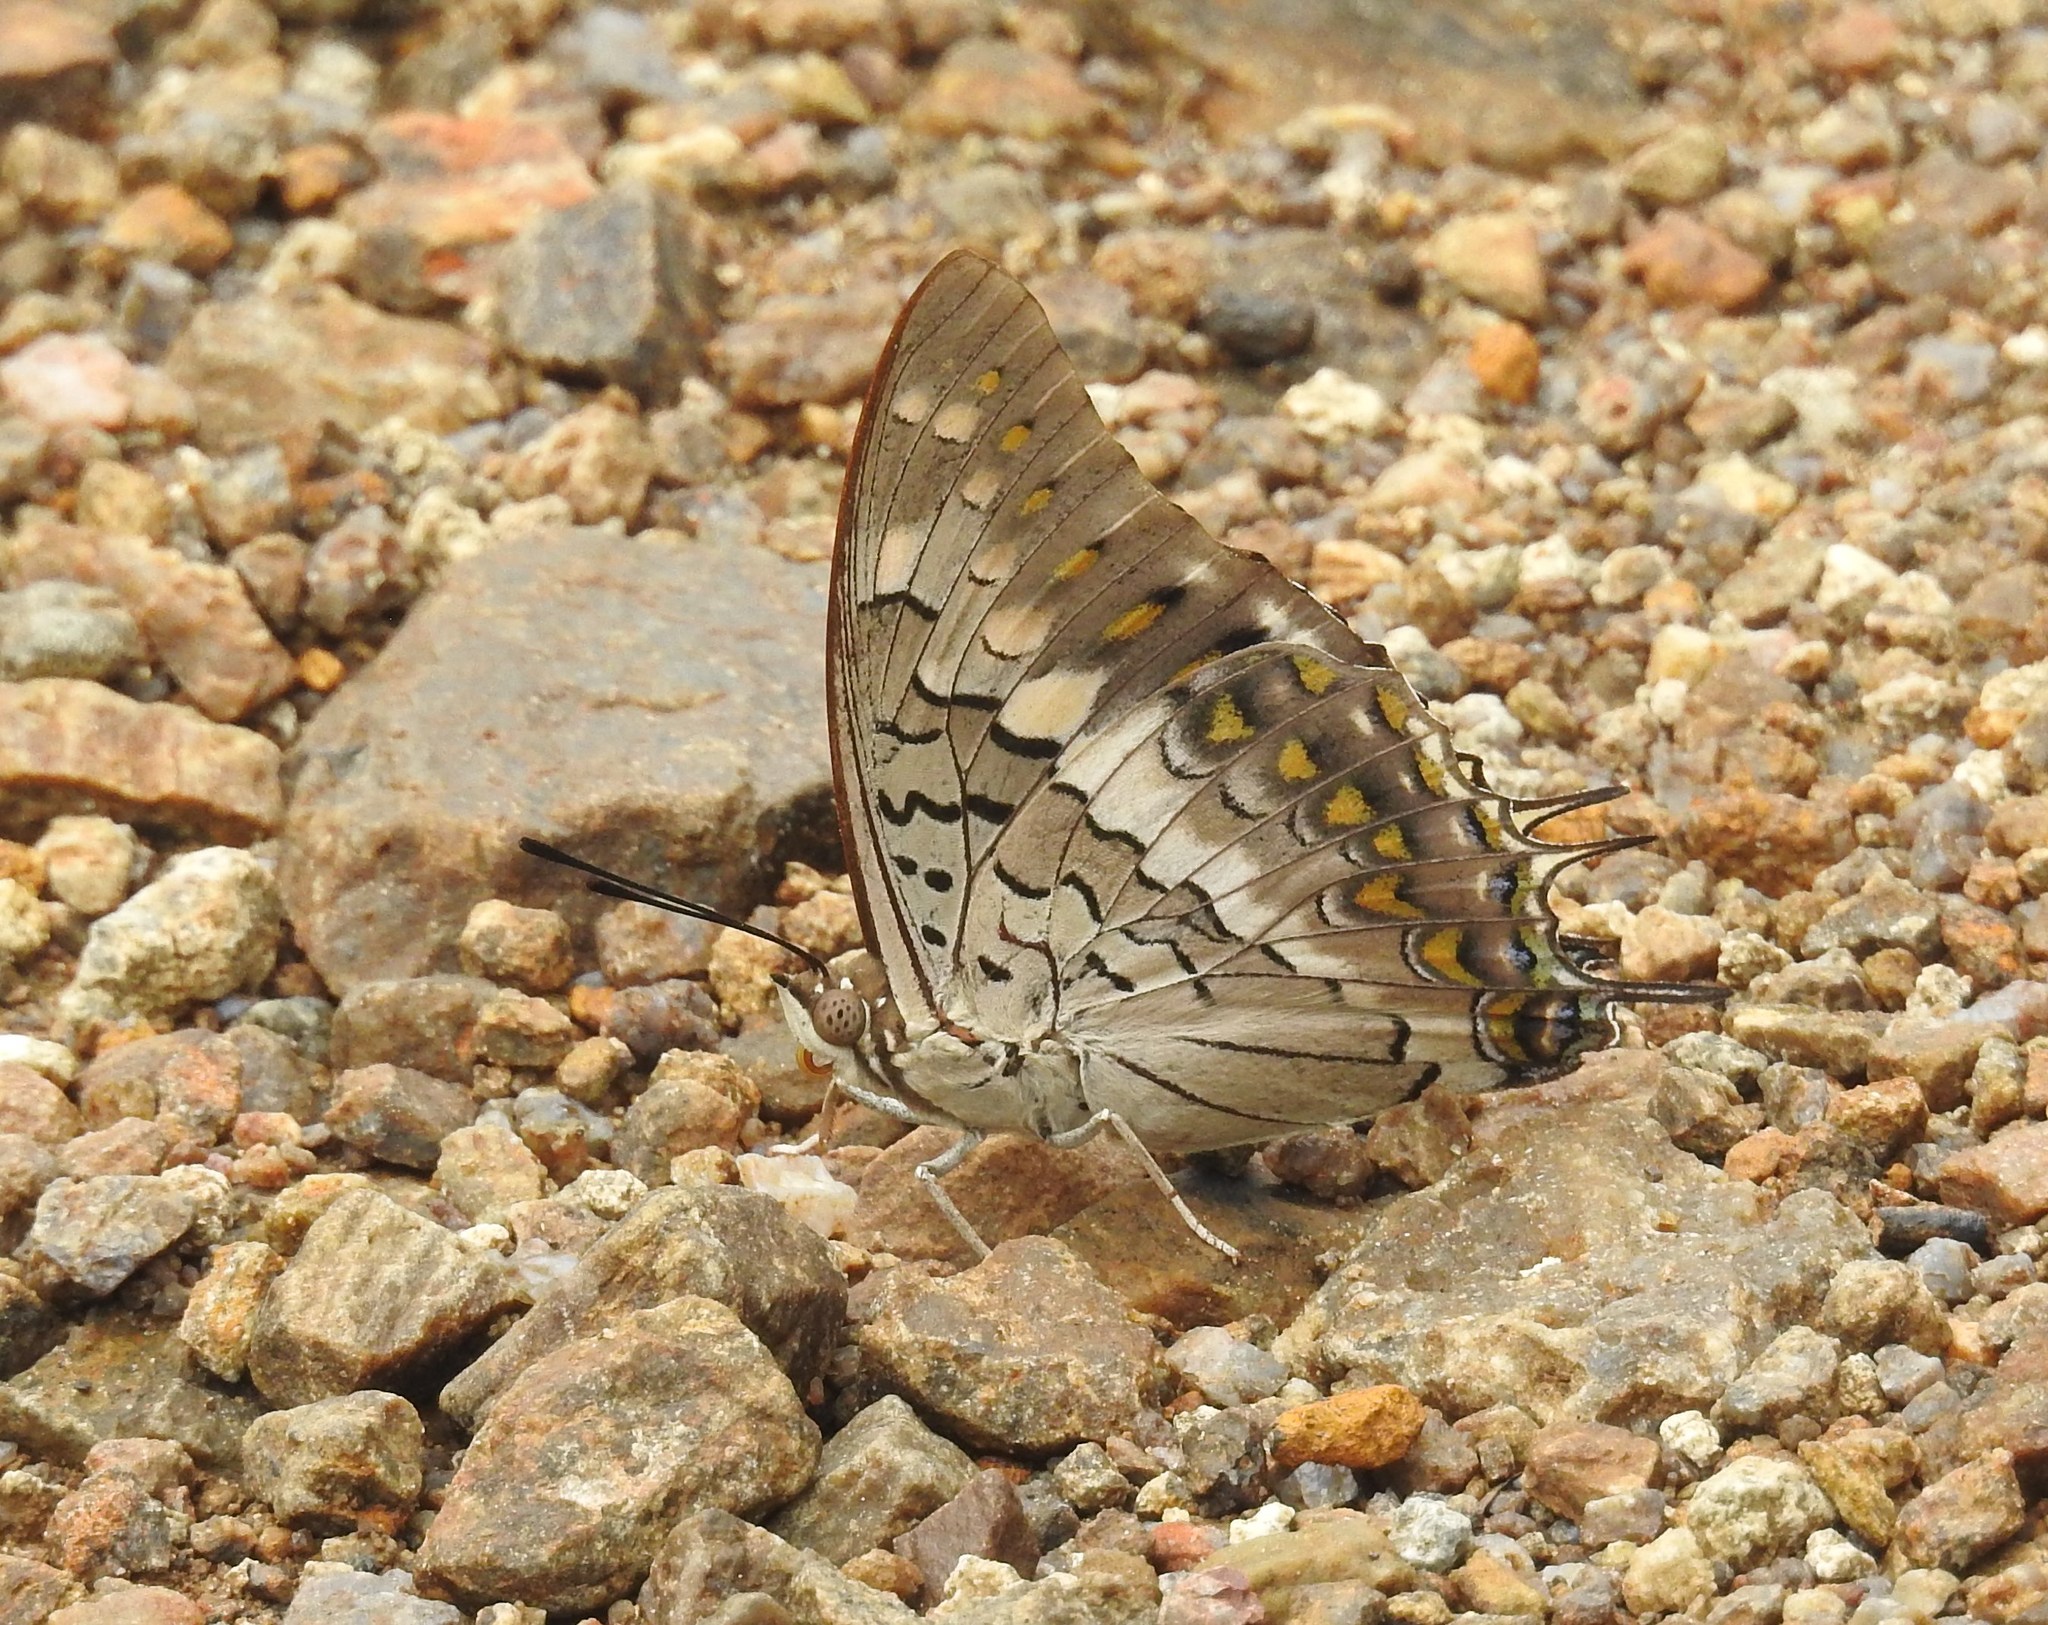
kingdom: Animalia
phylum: Arthropoda
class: Insecta
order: Lepidoptera
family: Nymphalidae
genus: Charaxes
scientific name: Charaxes solon
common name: Black rajah
